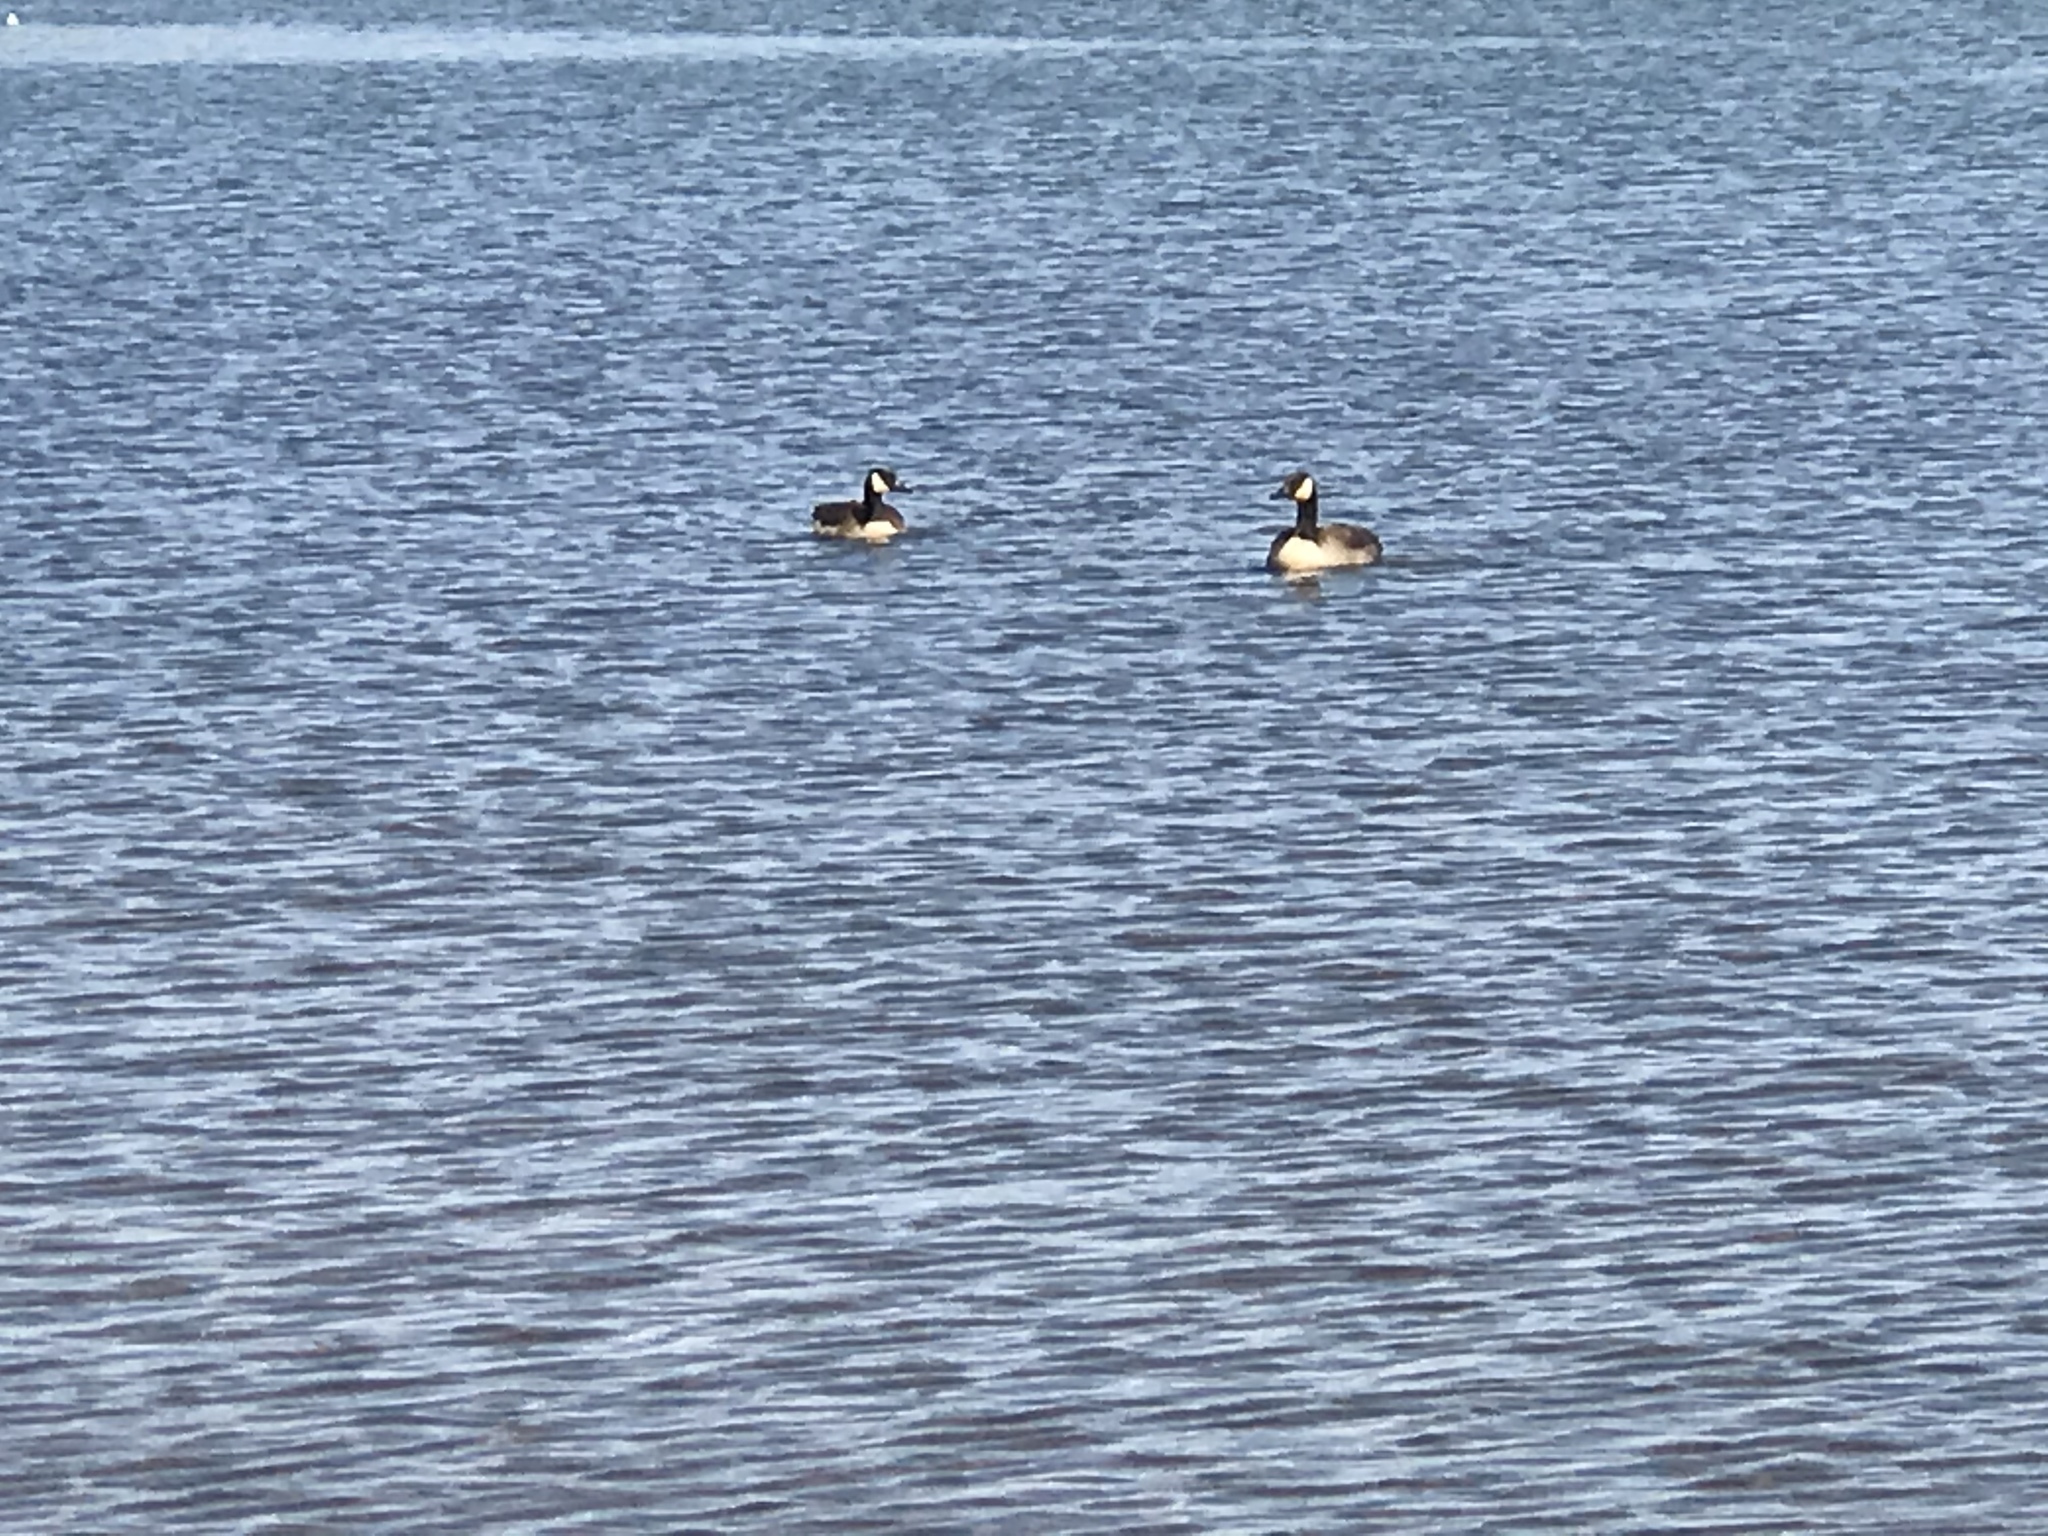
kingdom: Animalia
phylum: Chordata
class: Aves
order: Anseriformes
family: Anatidae
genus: Branta
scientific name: Branta canadensis
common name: Canada goose
